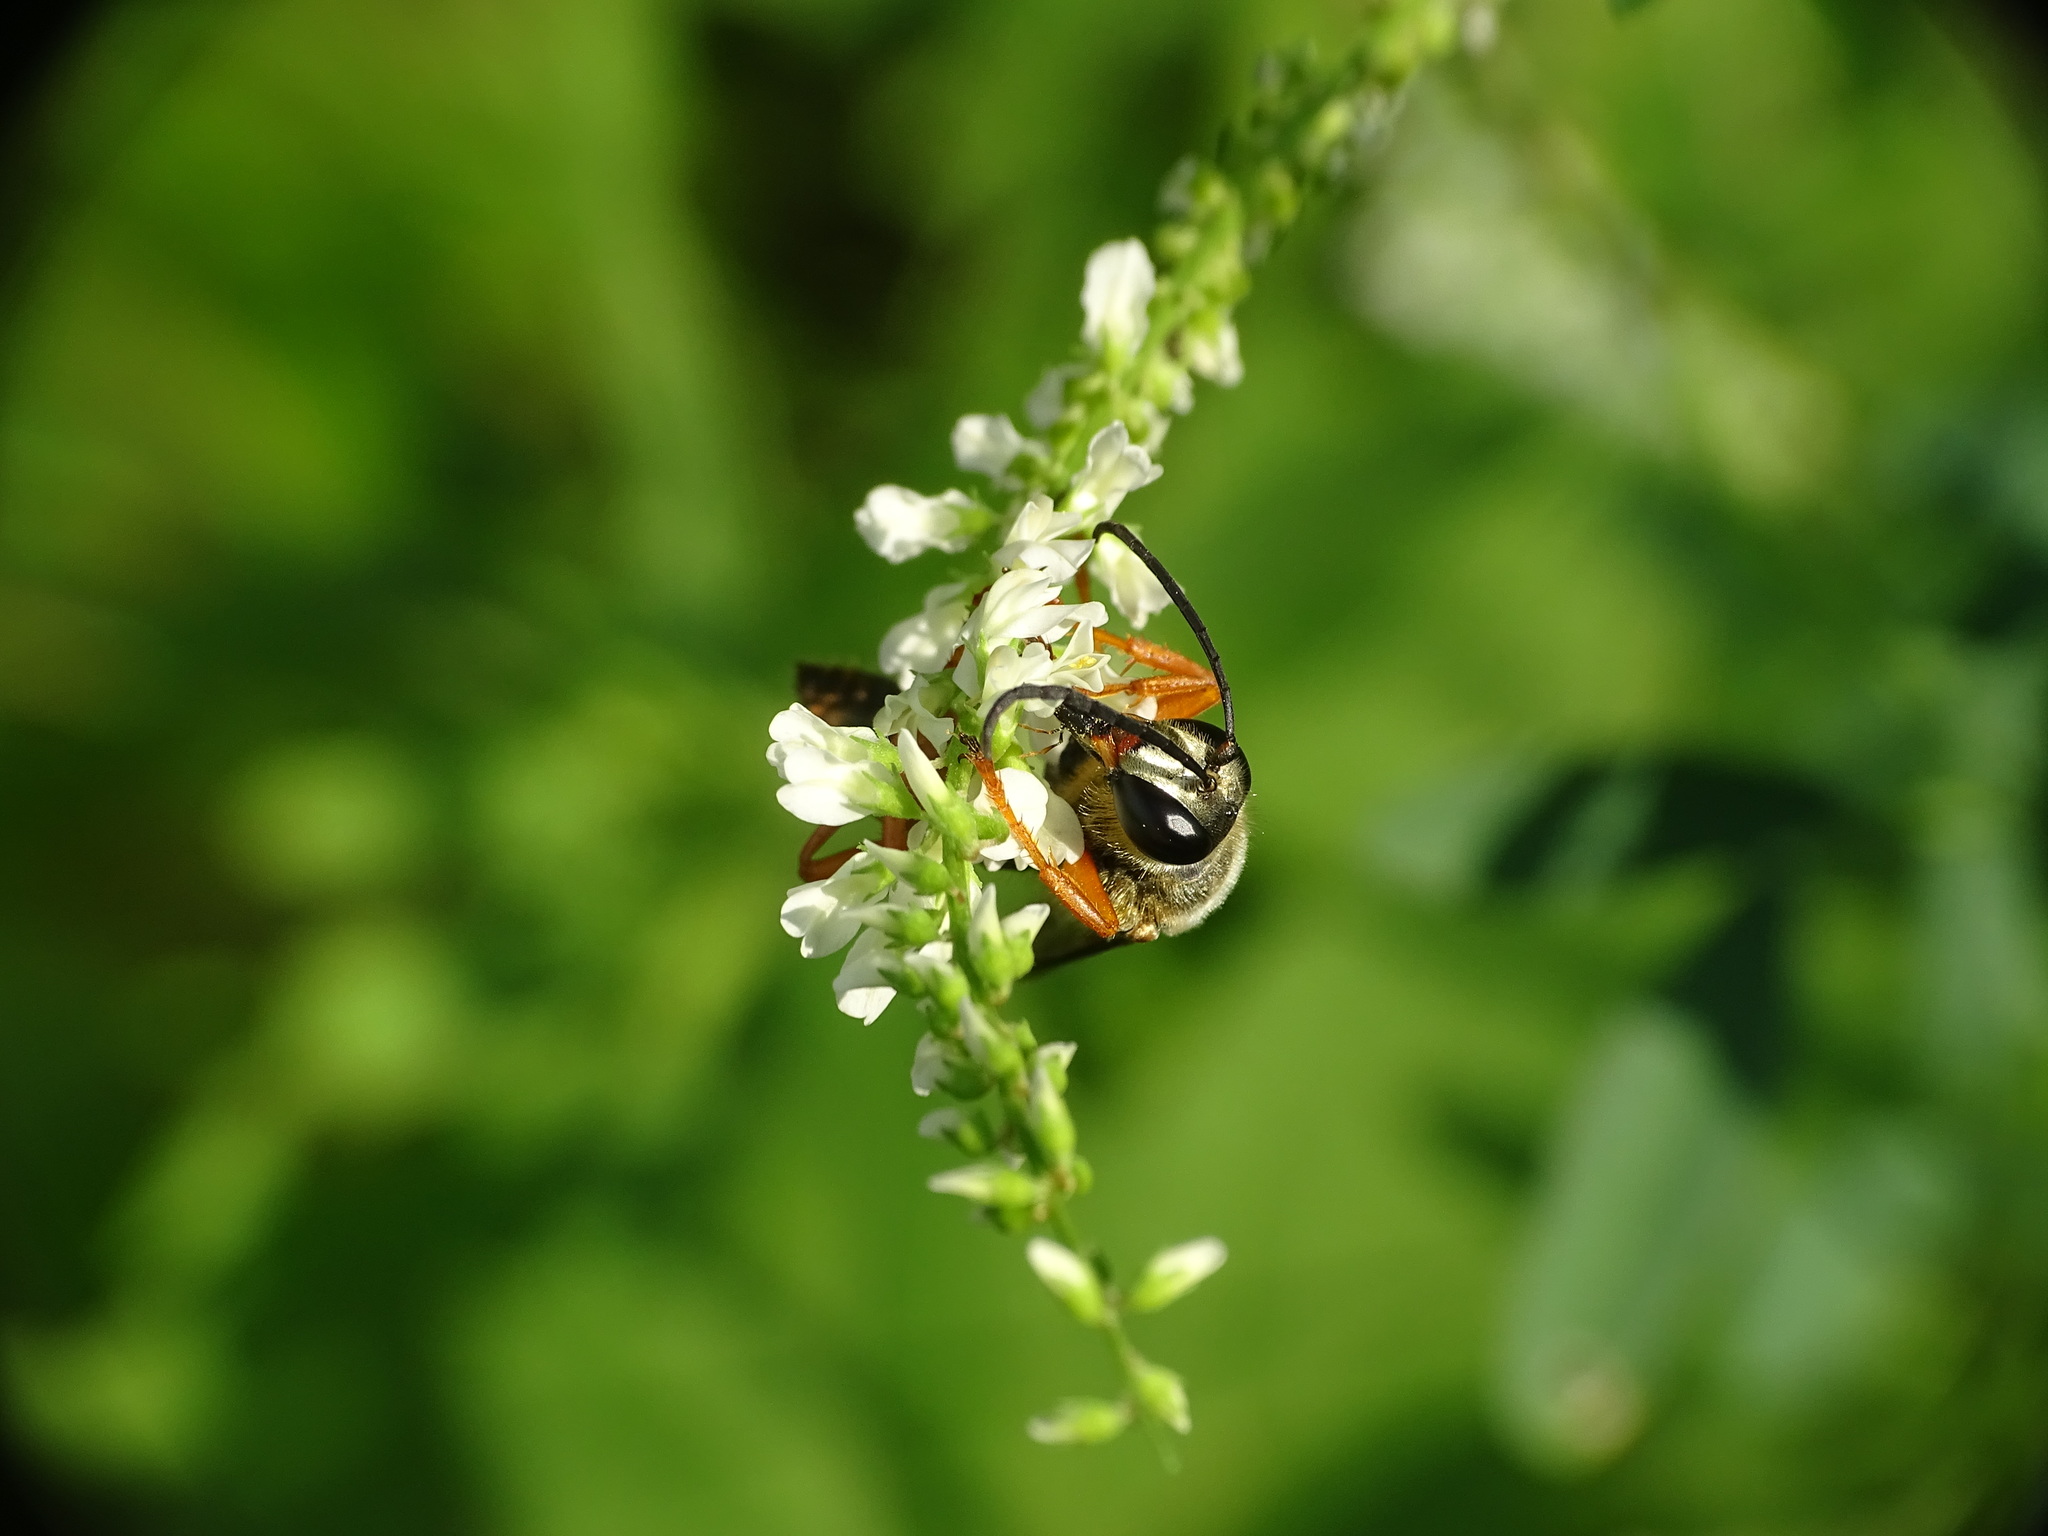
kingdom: Animalia
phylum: Arthropoda
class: Insecta
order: Hymenoptera
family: Sphecidae
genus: Sphex
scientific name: Sphex ichneumoneus
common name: Great golden digger wasp
